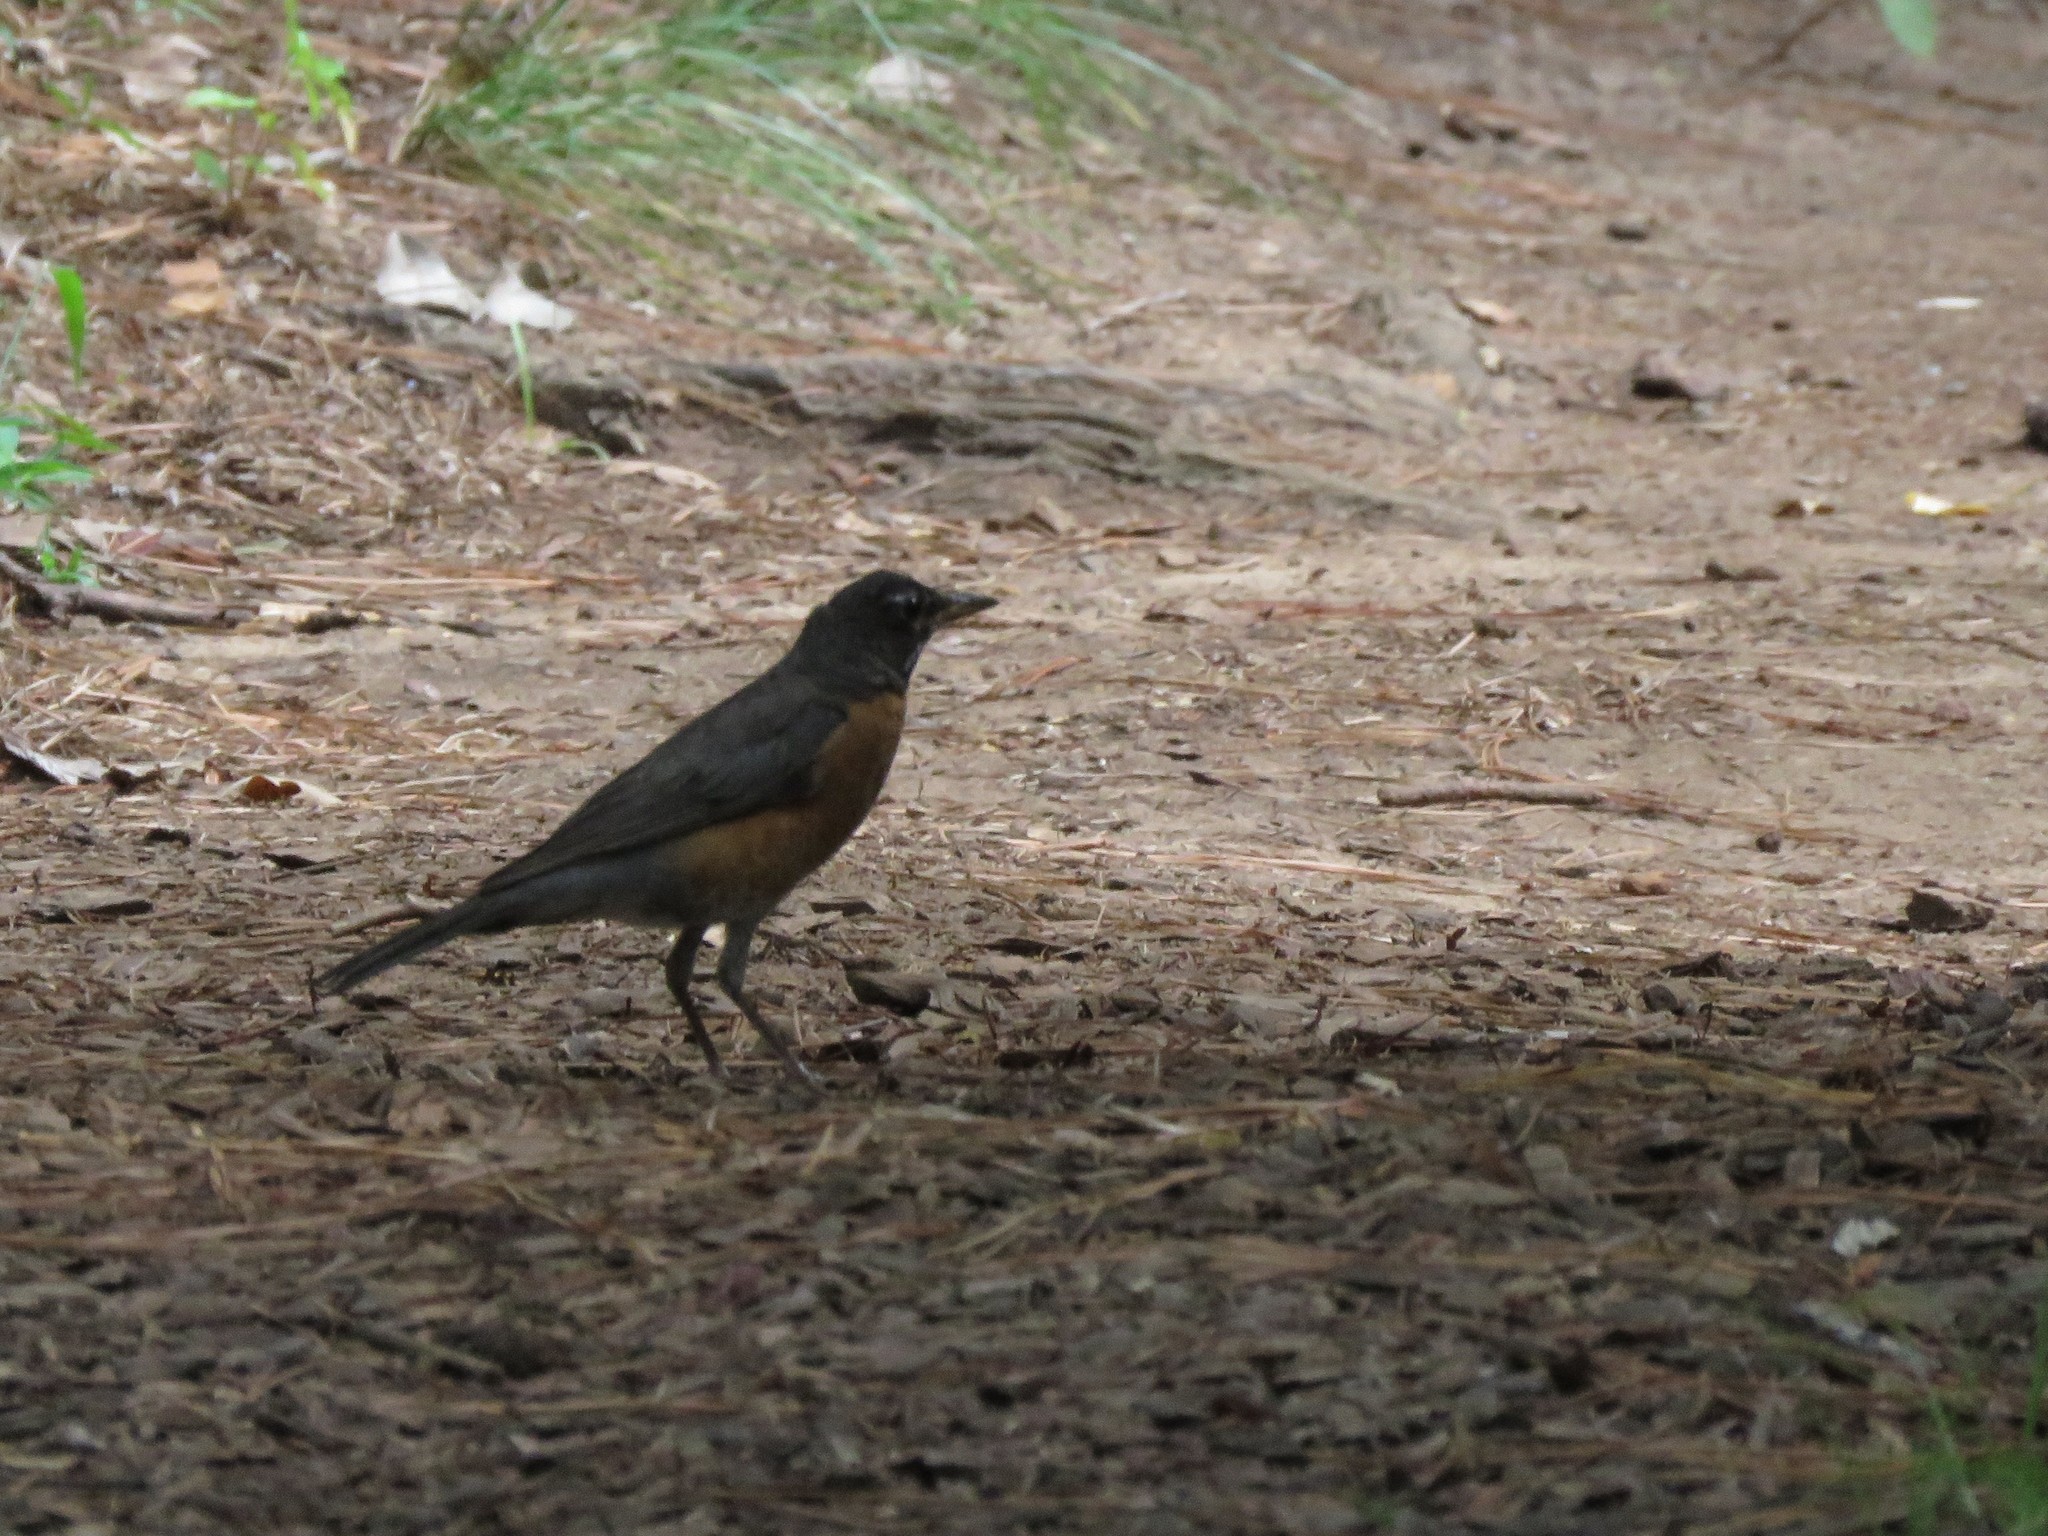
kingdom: Animalia
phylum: Chordata
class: Aves
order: Passeriformes
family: Turdidae
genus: Turdus
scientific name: Turdus migratorius
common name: American robin
